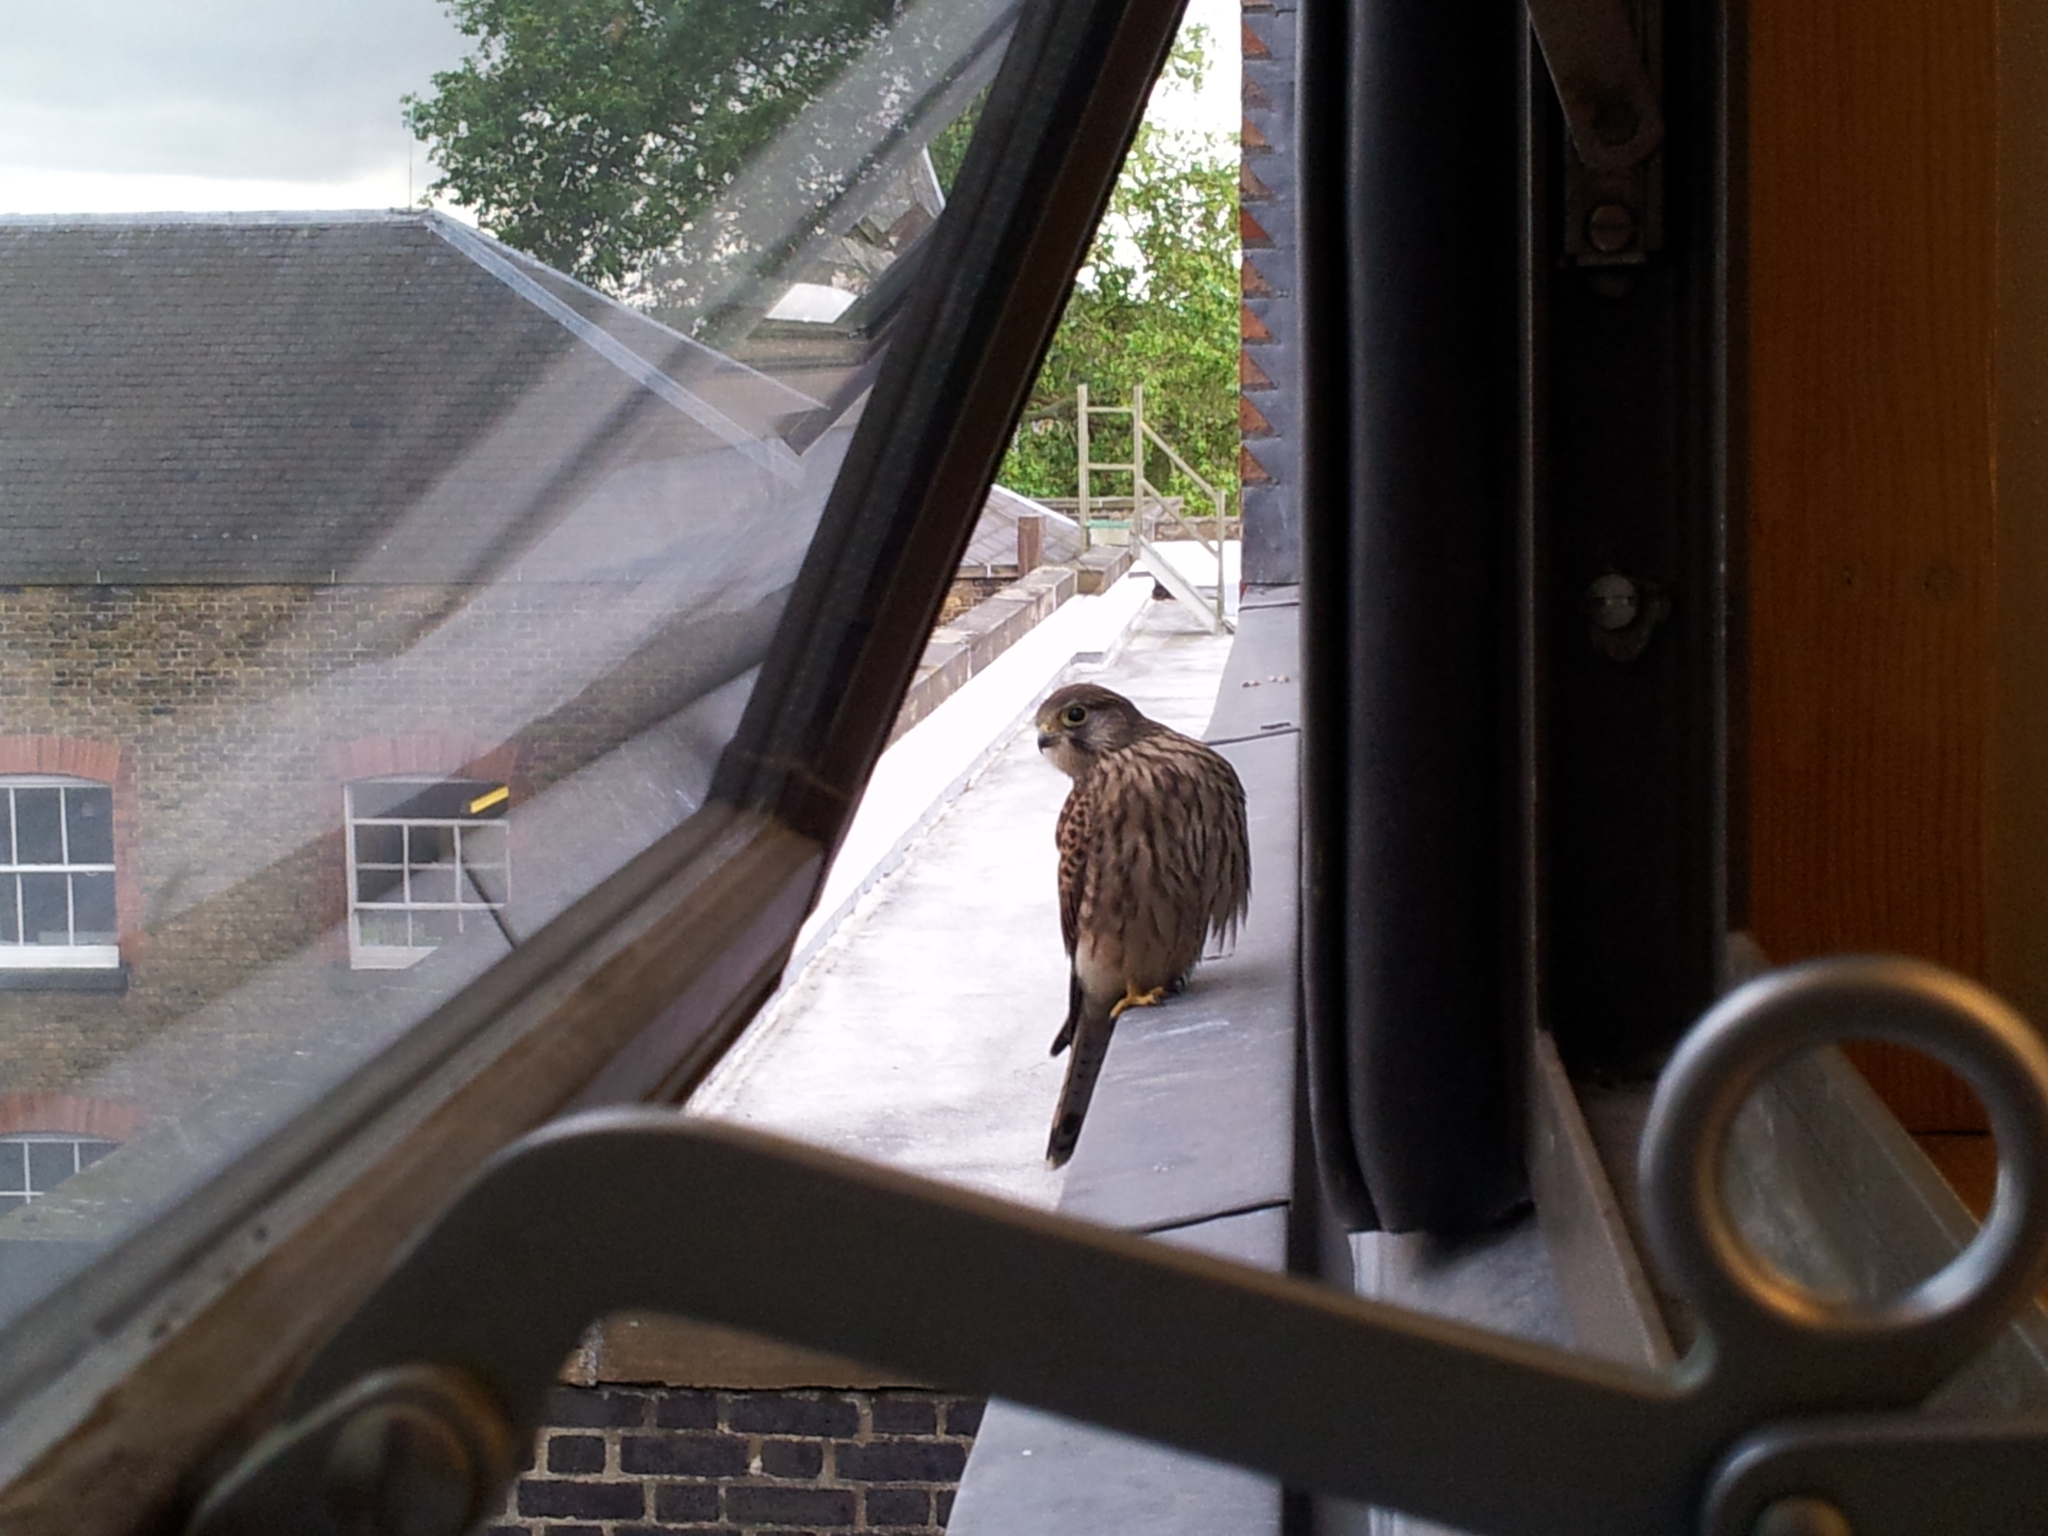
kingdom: Animalia
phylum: Chordata
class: Aves
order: Falconiformes
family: Falconidae
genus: Falco
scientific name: Falco tinnunculus
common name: Common kestrel
